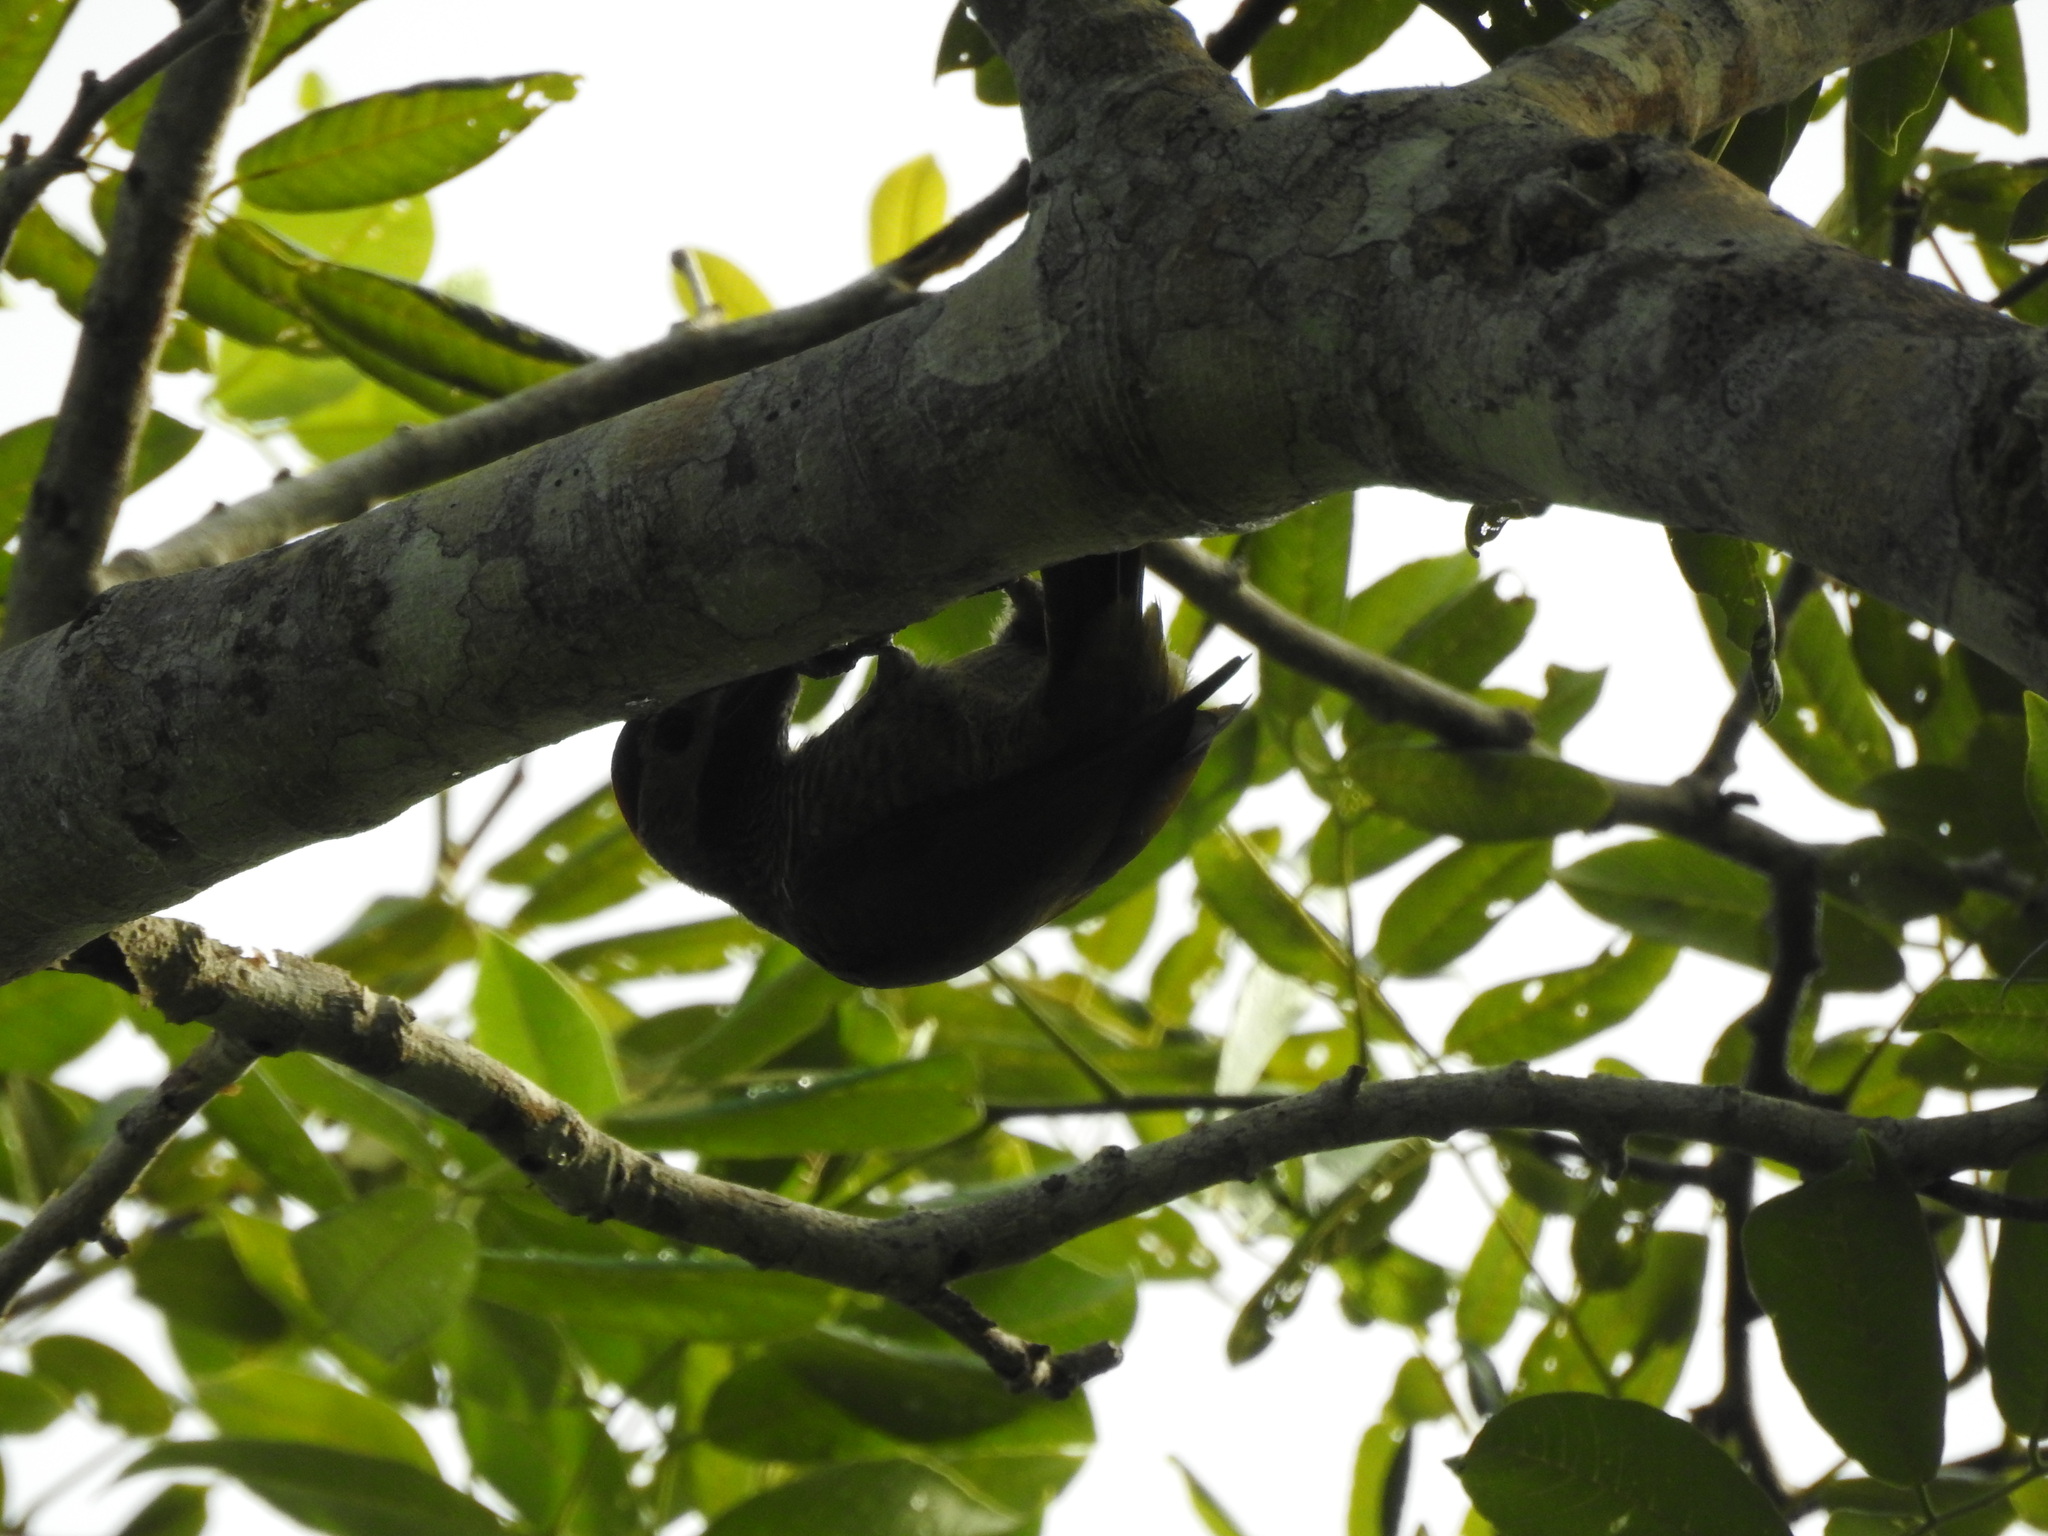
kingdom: Animalia
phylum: Chordata
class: Aves
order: Piciformes
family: Picidae
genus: Colaptes
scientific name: Colaptes rubiginosus
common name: Golden-olive woodpecker
